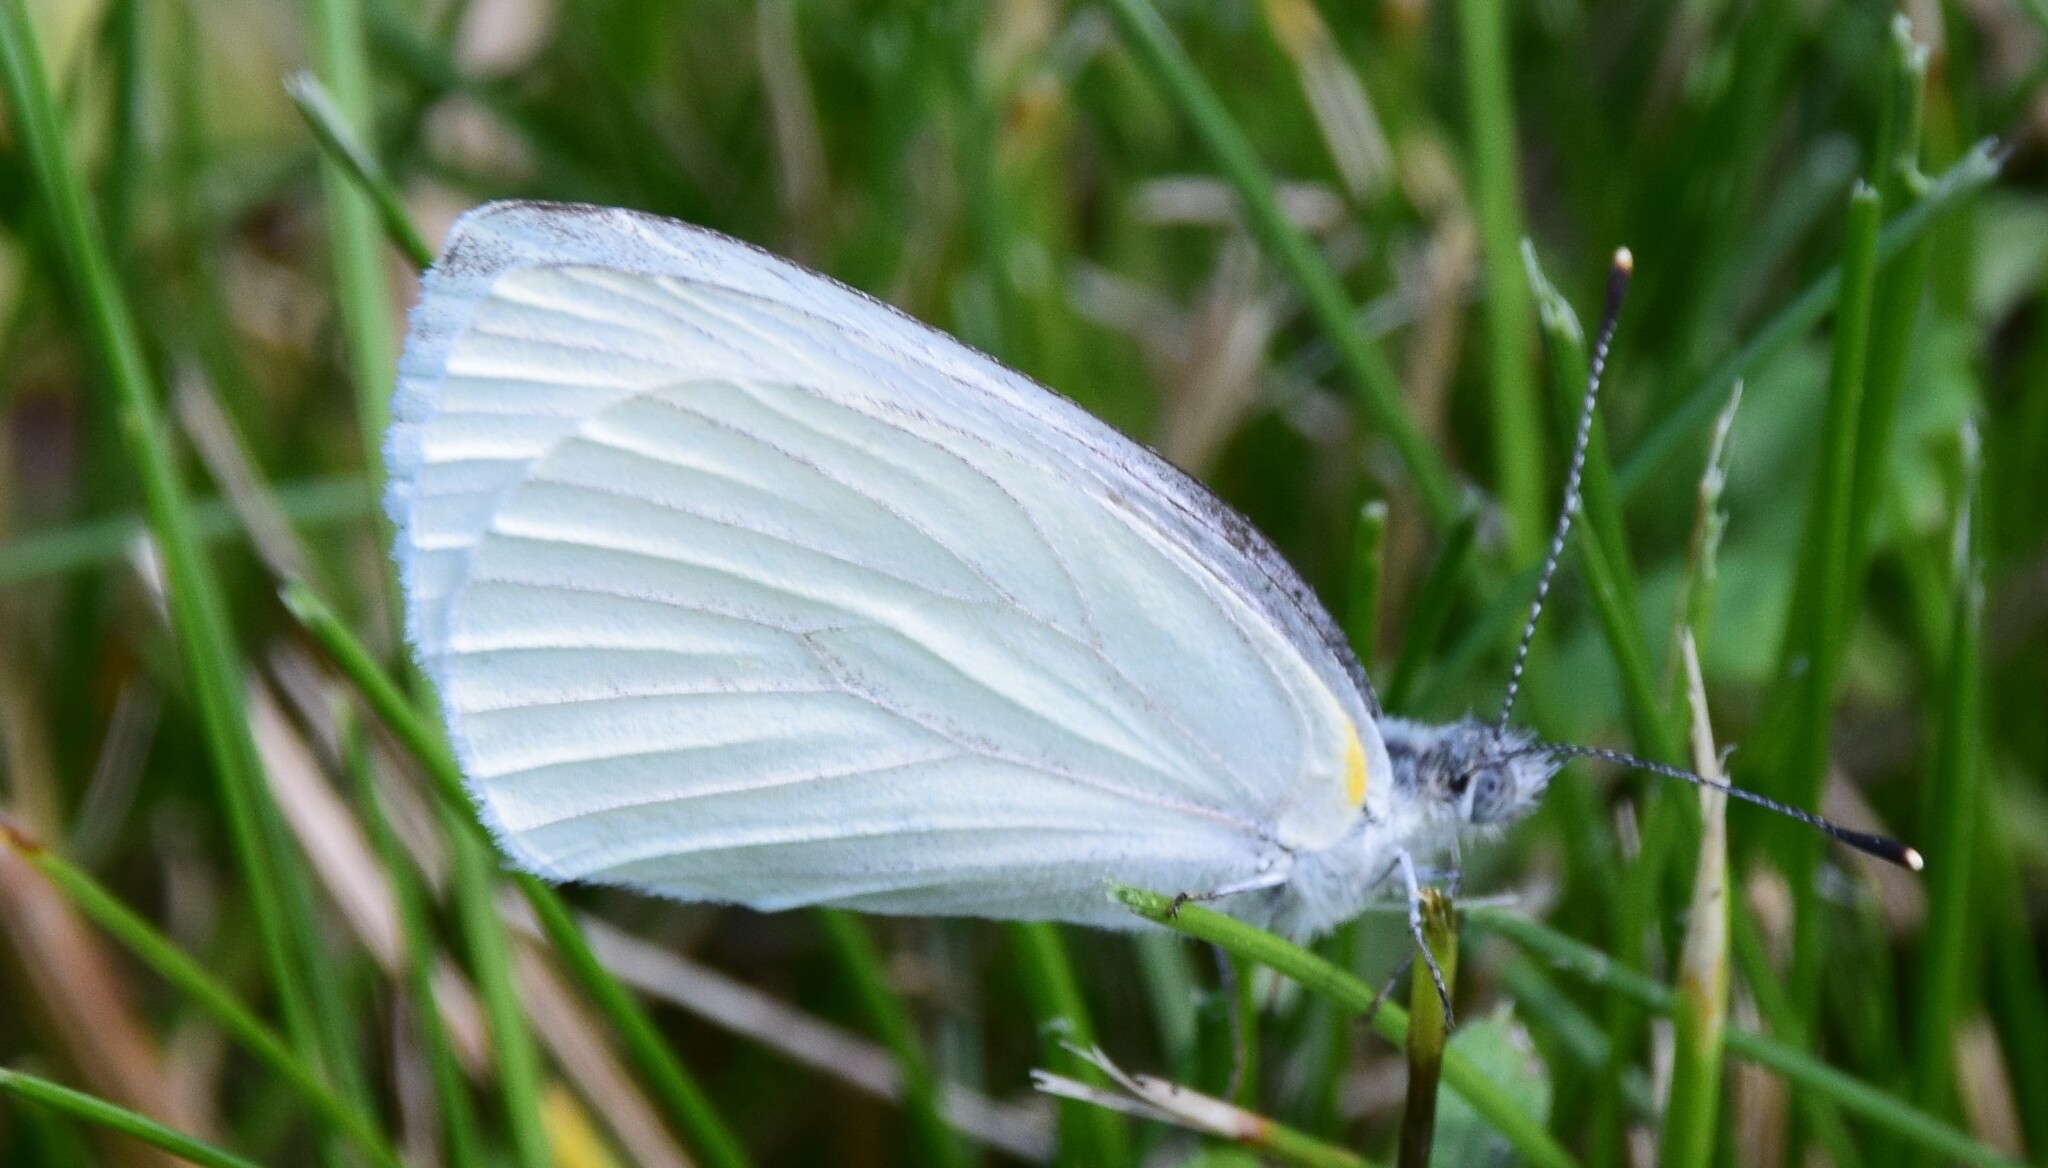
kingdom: Animalia
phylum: Arthropoda
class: Insecta
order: Lepidoptera
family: Pieridae
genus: Pieris
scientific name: Pieris oleracea
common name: Mustard white
